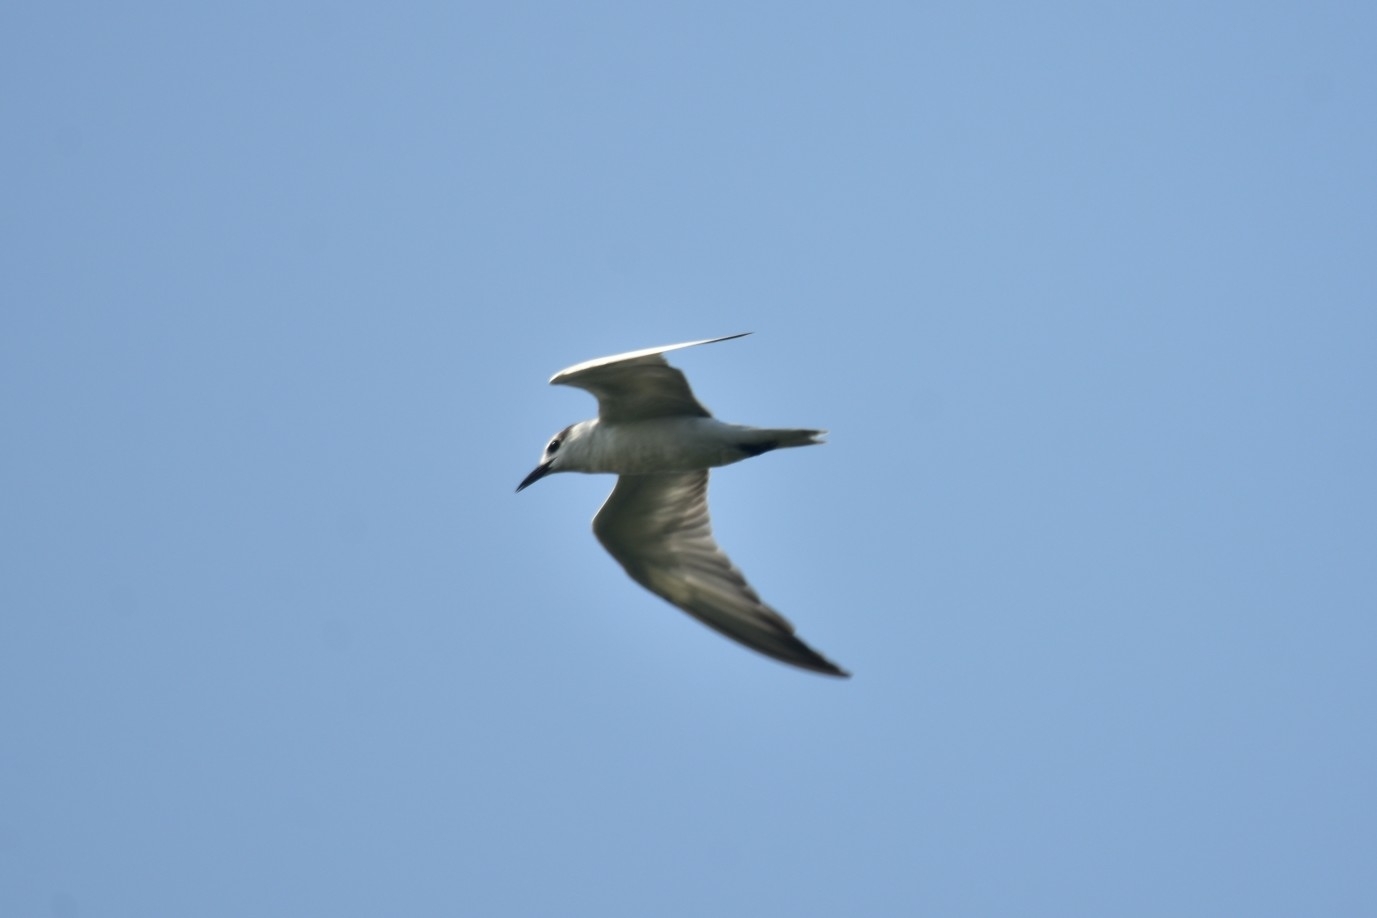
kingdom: Animalia
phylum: Chordata
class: Aves
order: Charadriiformes
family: Laridae
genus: Chlidonias
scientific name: Chlidonias hybrida
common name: Whiskered tern
